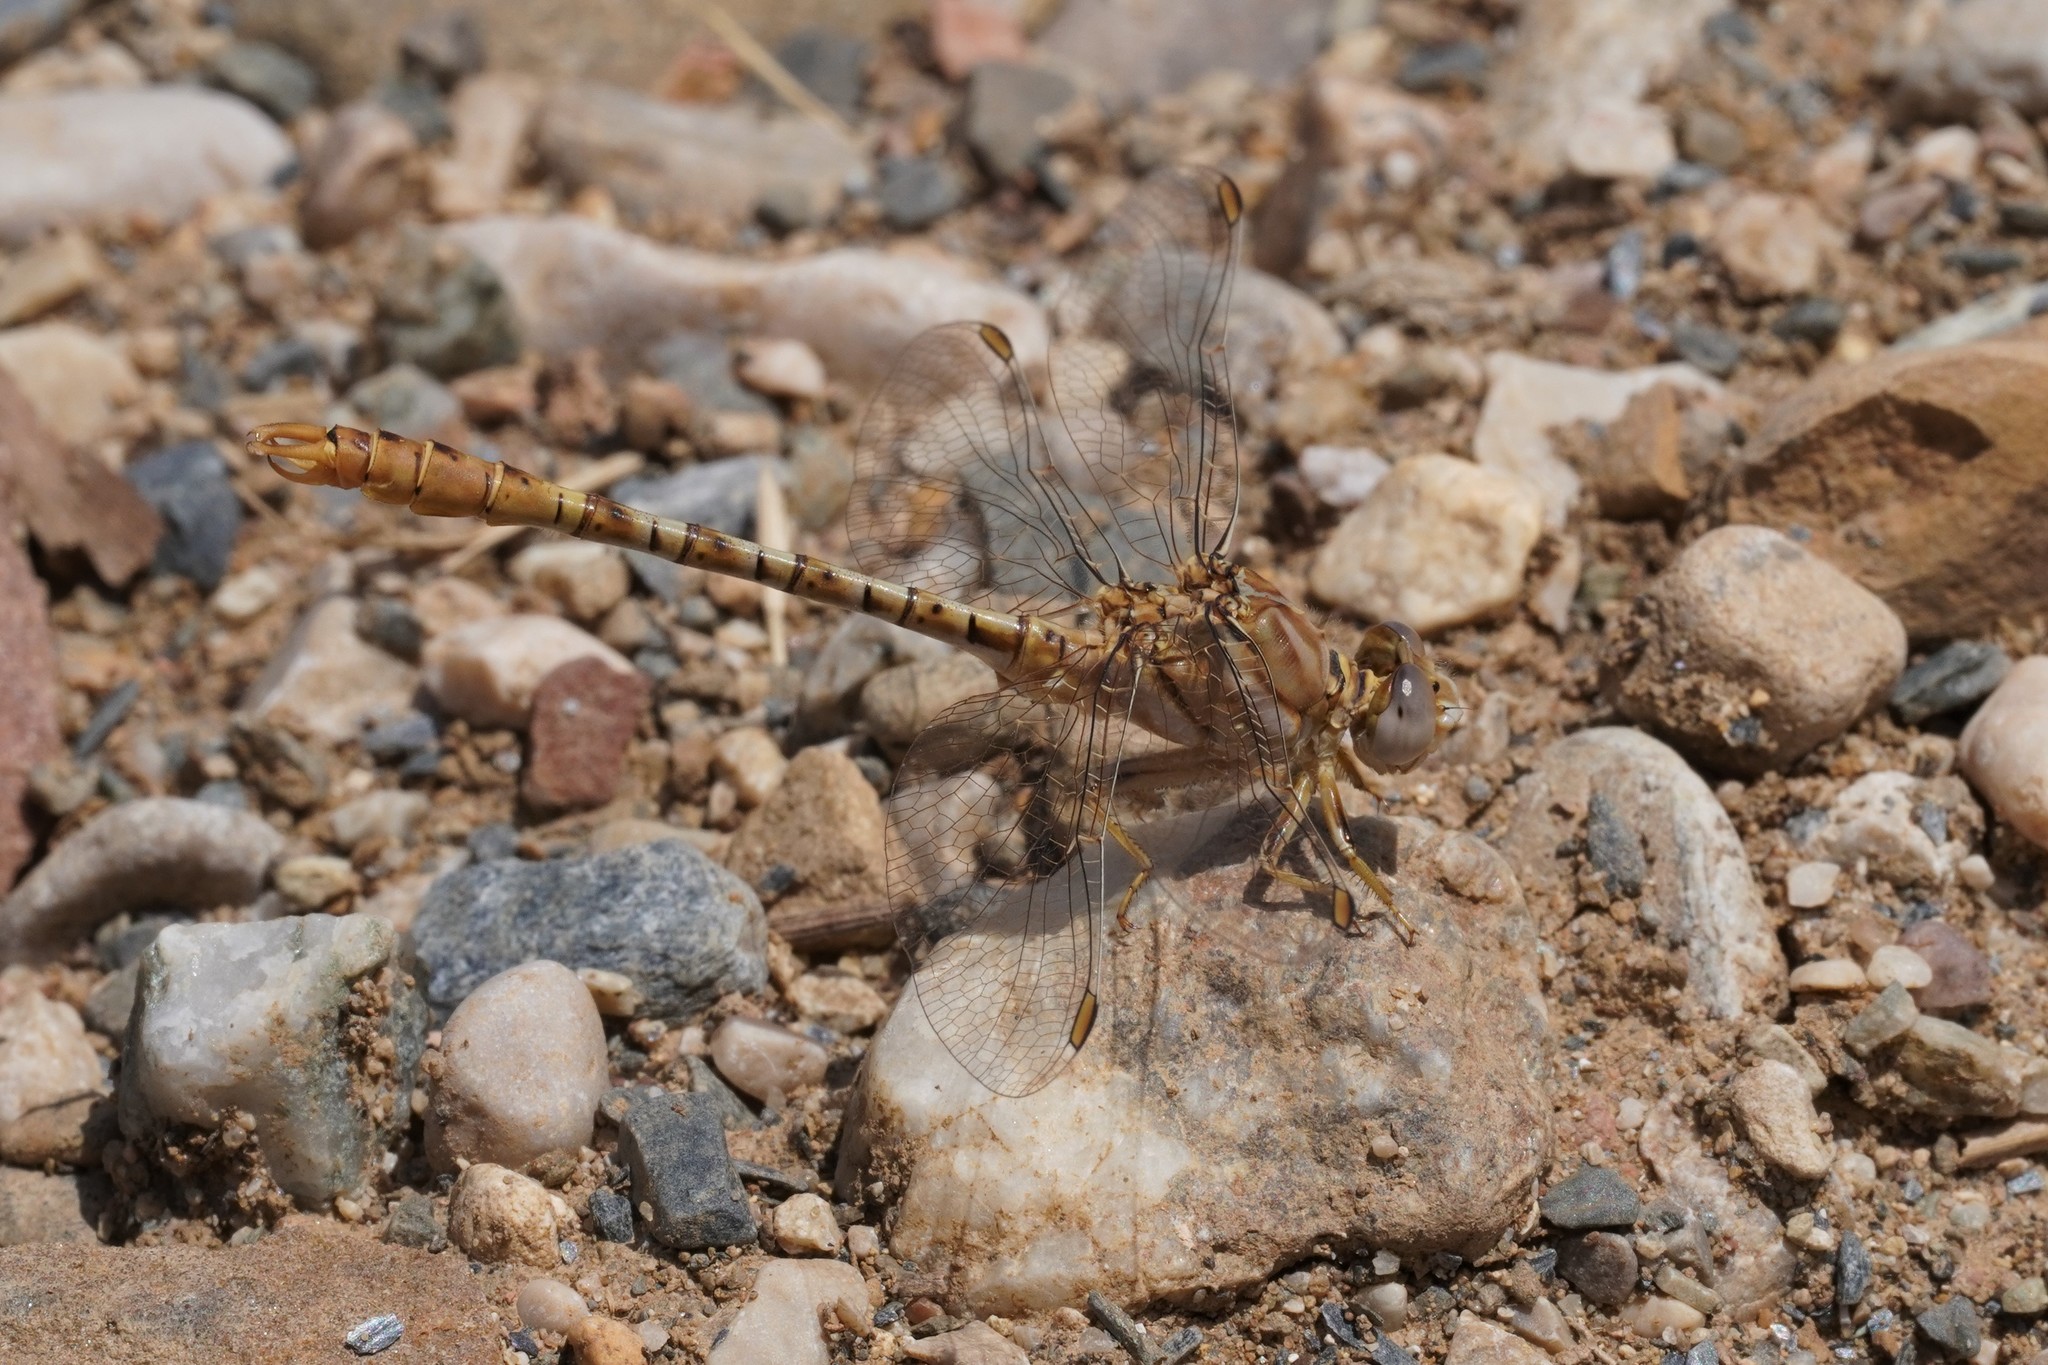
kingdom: Animalia
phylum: Arthropoda
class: Insecta
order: Odonata
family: Gomphidae
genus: Onychogomphus
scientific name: Onychogomphus costae
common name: Faded pincertail
